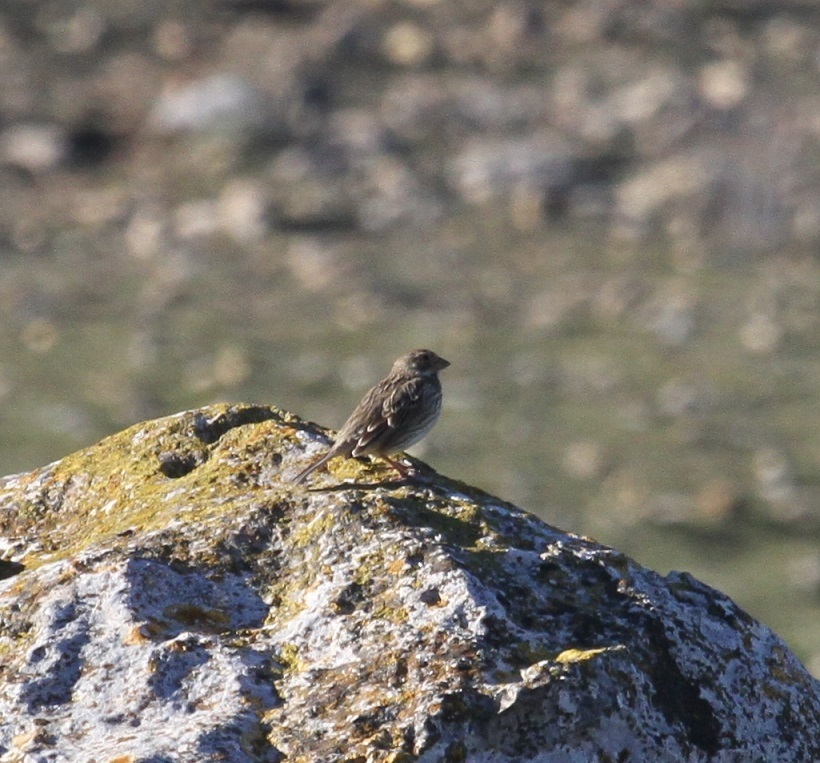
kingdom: Animalia
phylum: Chordata
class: Aves
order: Passeriformes
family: Emberizidae
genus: Emberiza
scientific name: Emberiza calandra
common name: Corn bunting
